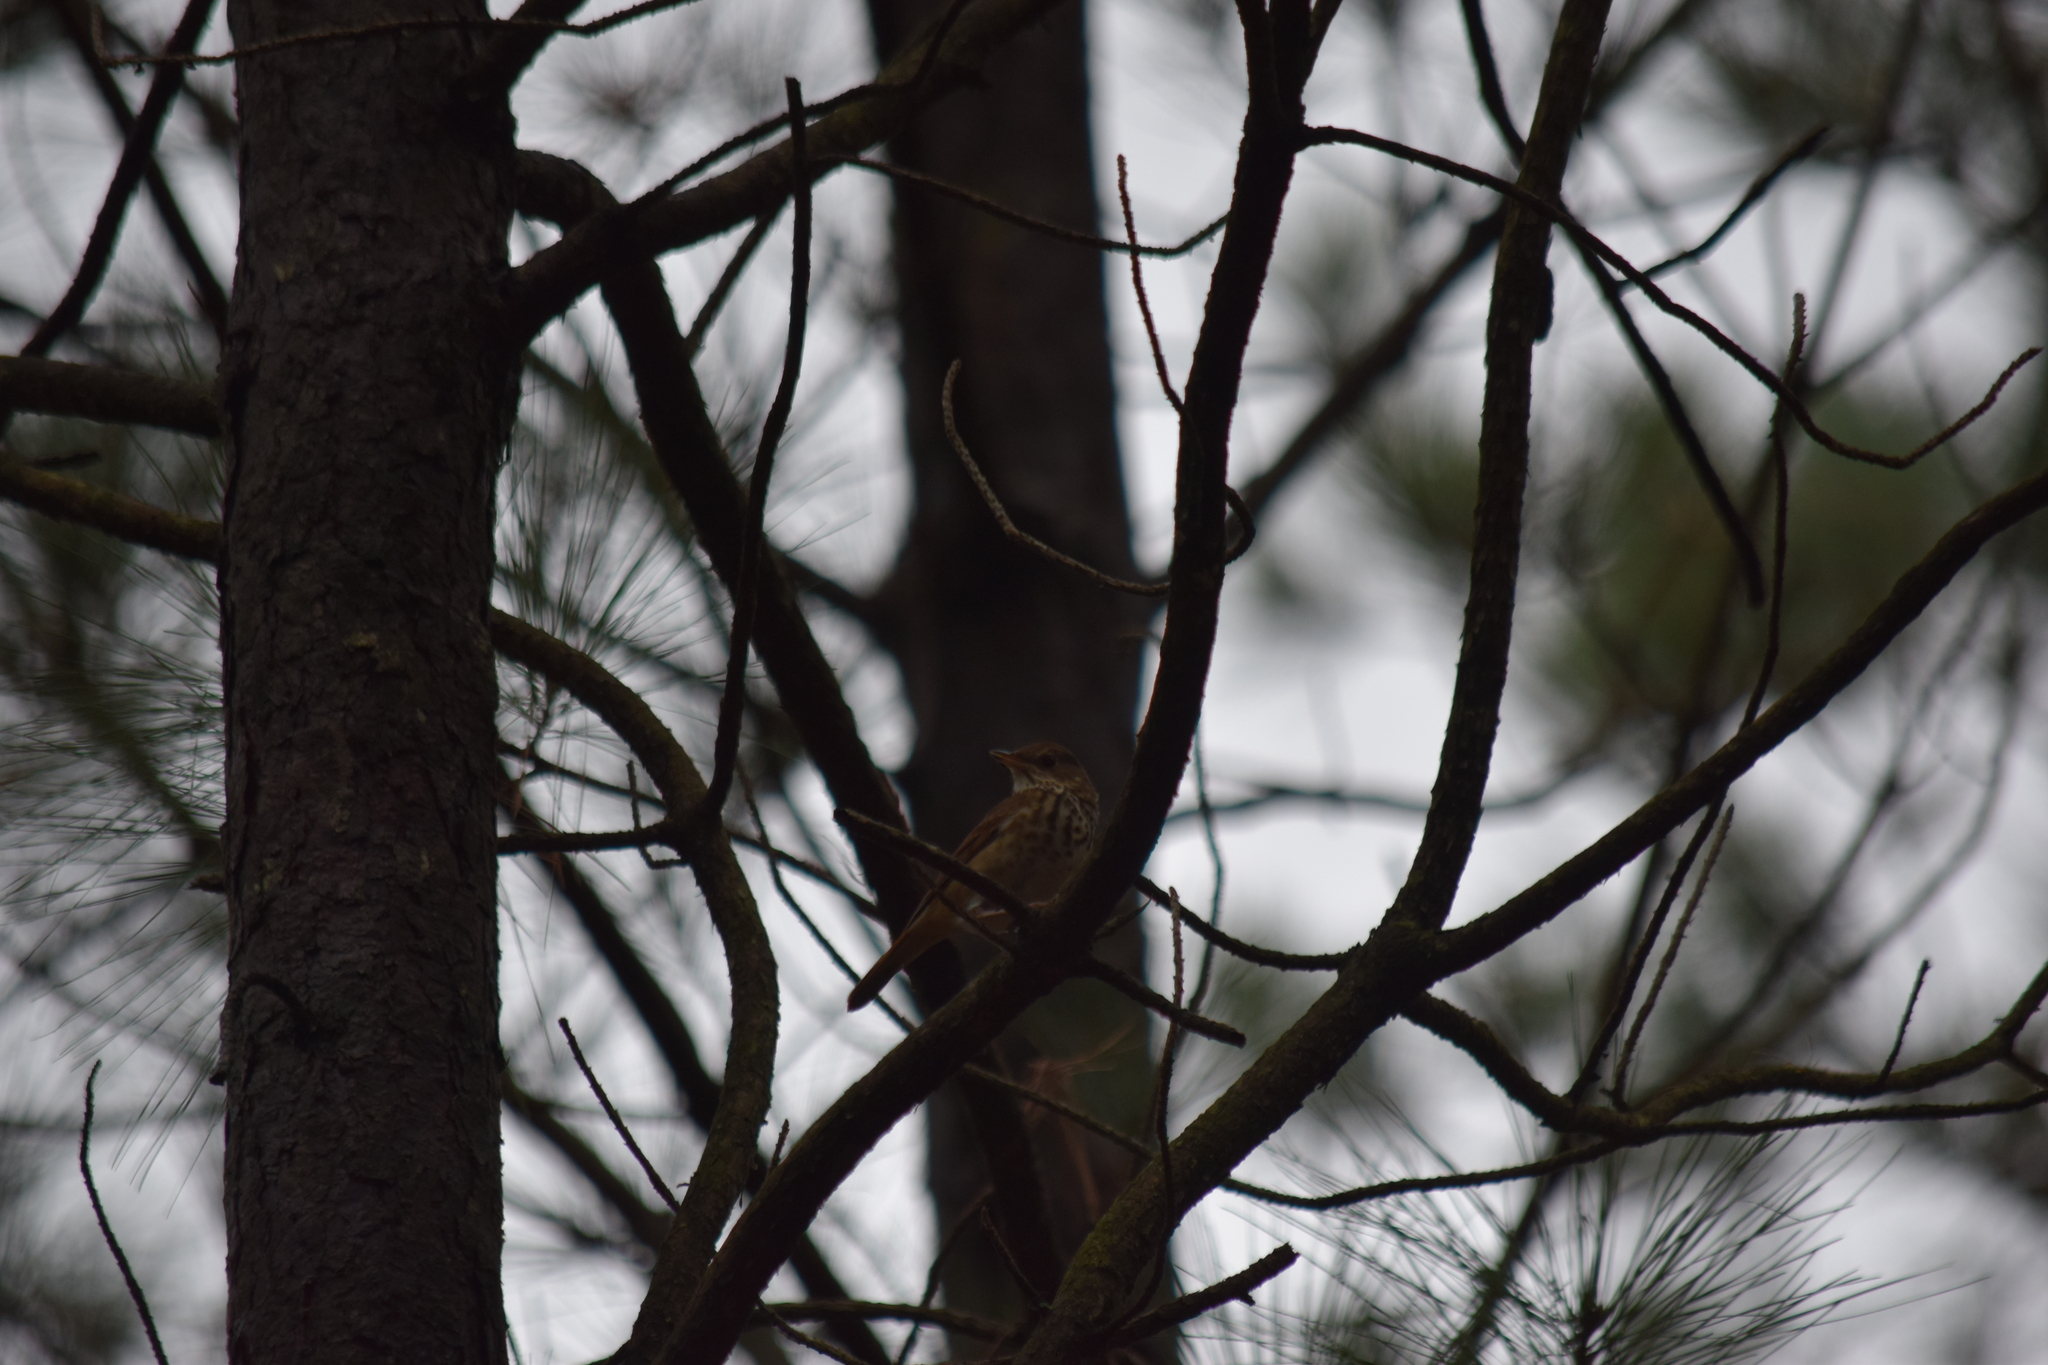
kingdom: Animalia
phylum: Chordata
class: Aves
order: Passeriformes
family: Turdidae
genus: Catharus
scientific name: Catharus guttatus
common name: Hermit thrush
